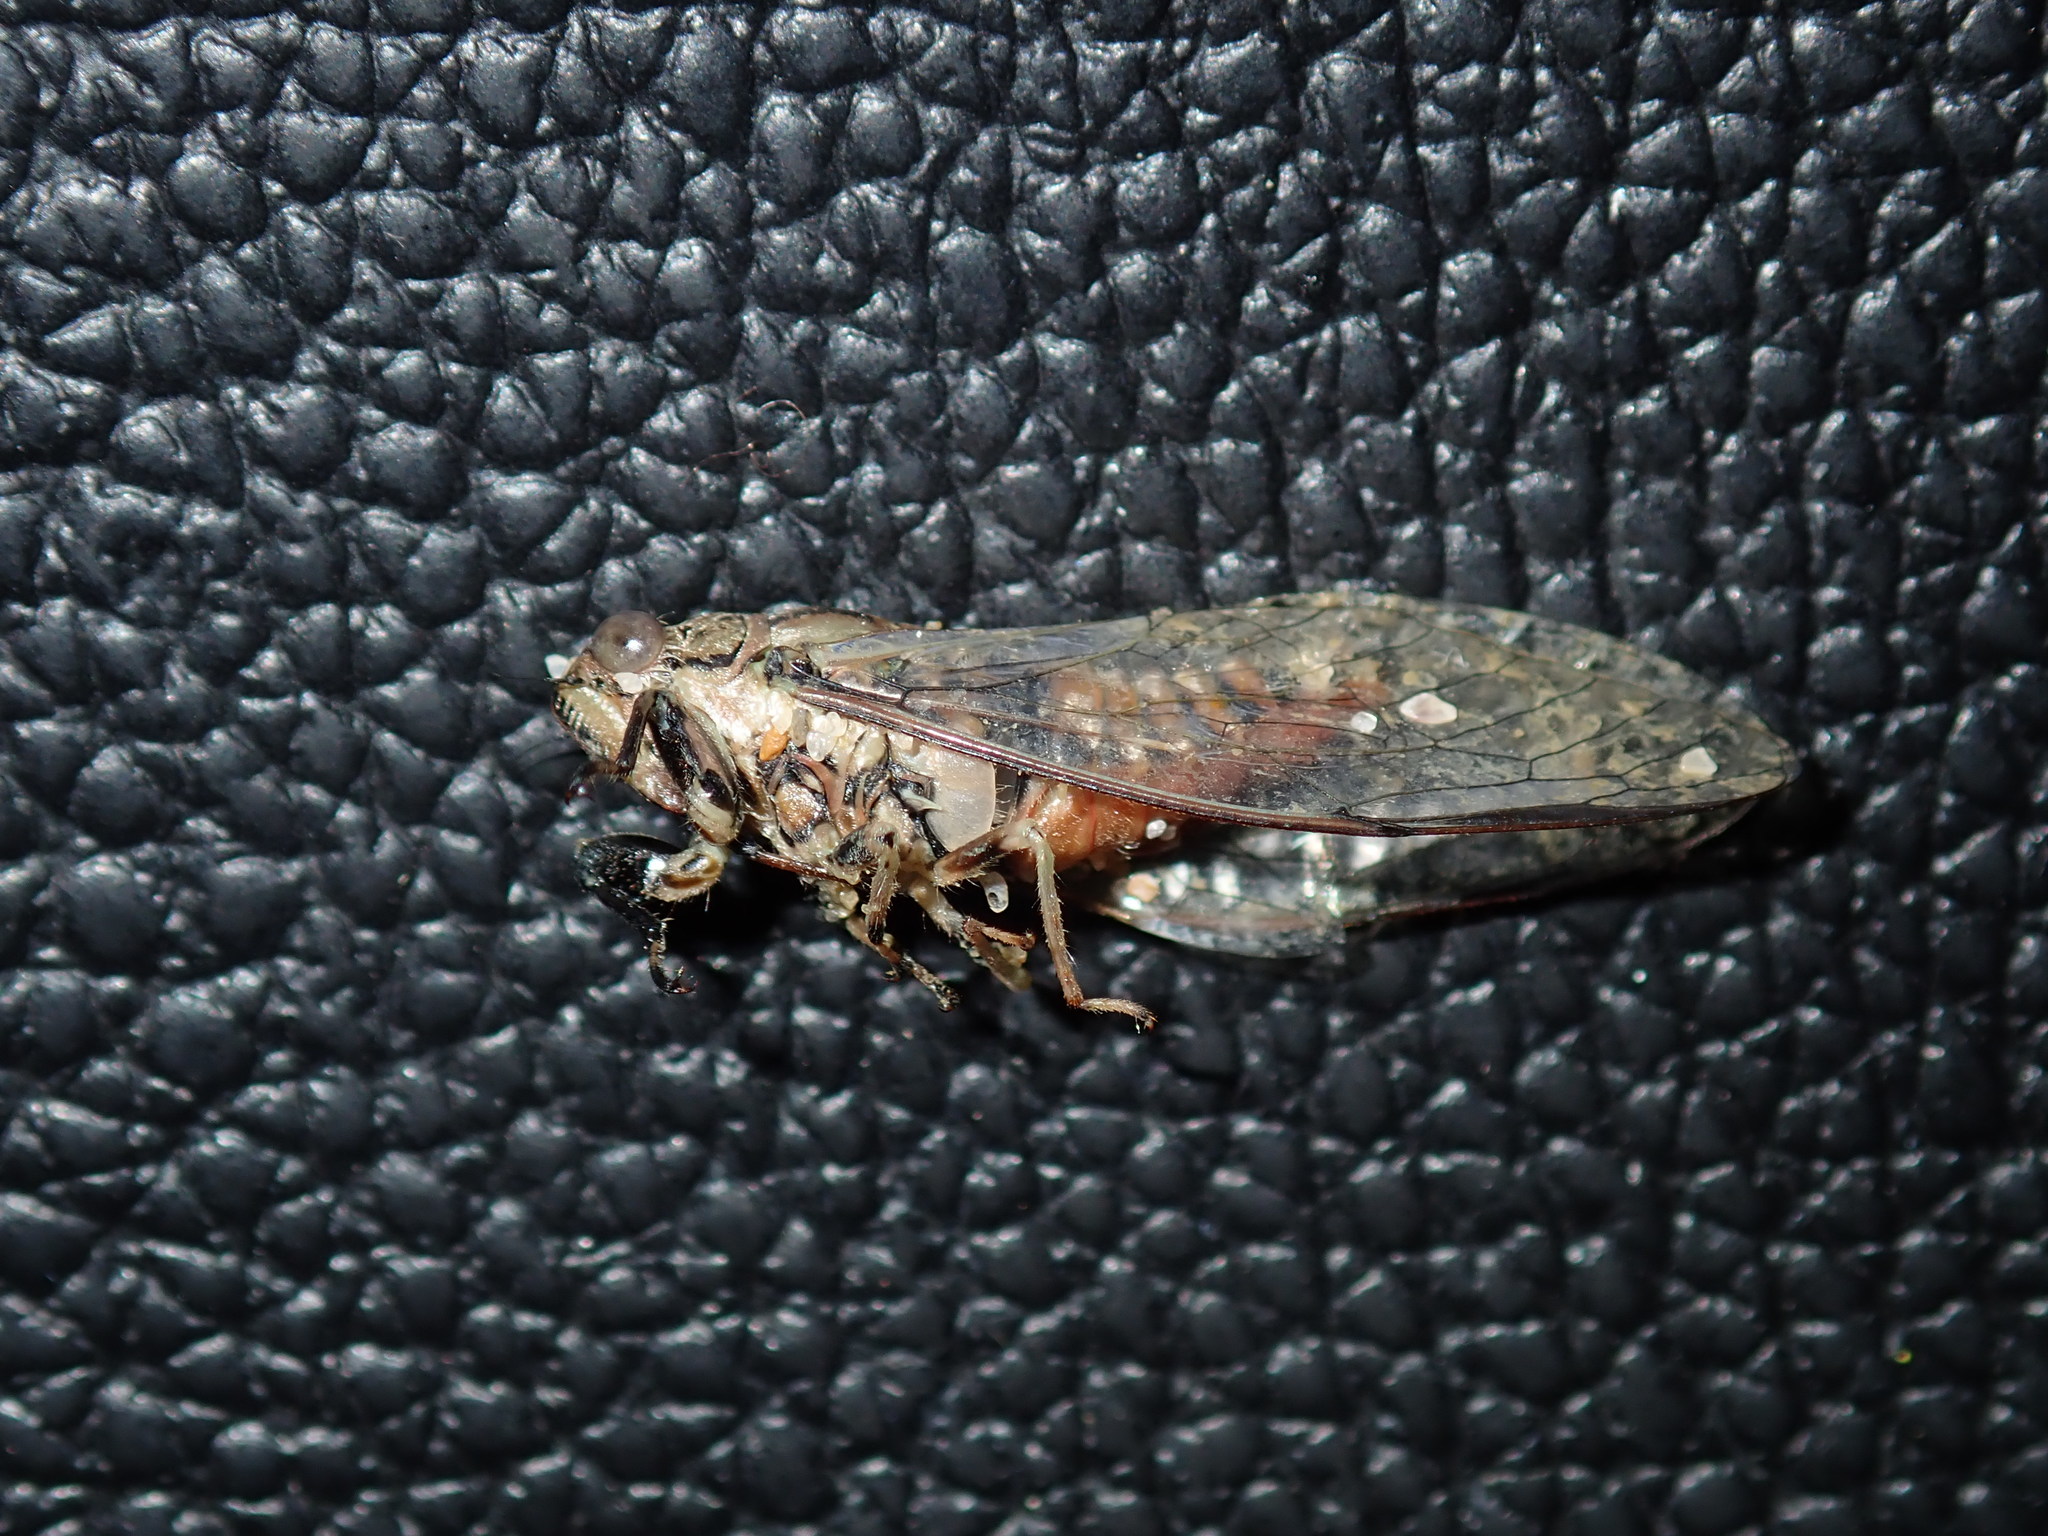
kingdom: Animalia
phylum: Arthropoda
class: Insecta
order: Hemiptera
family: Cicadidae
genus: Telmapsalta
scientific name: Telmapsalta hackeri
